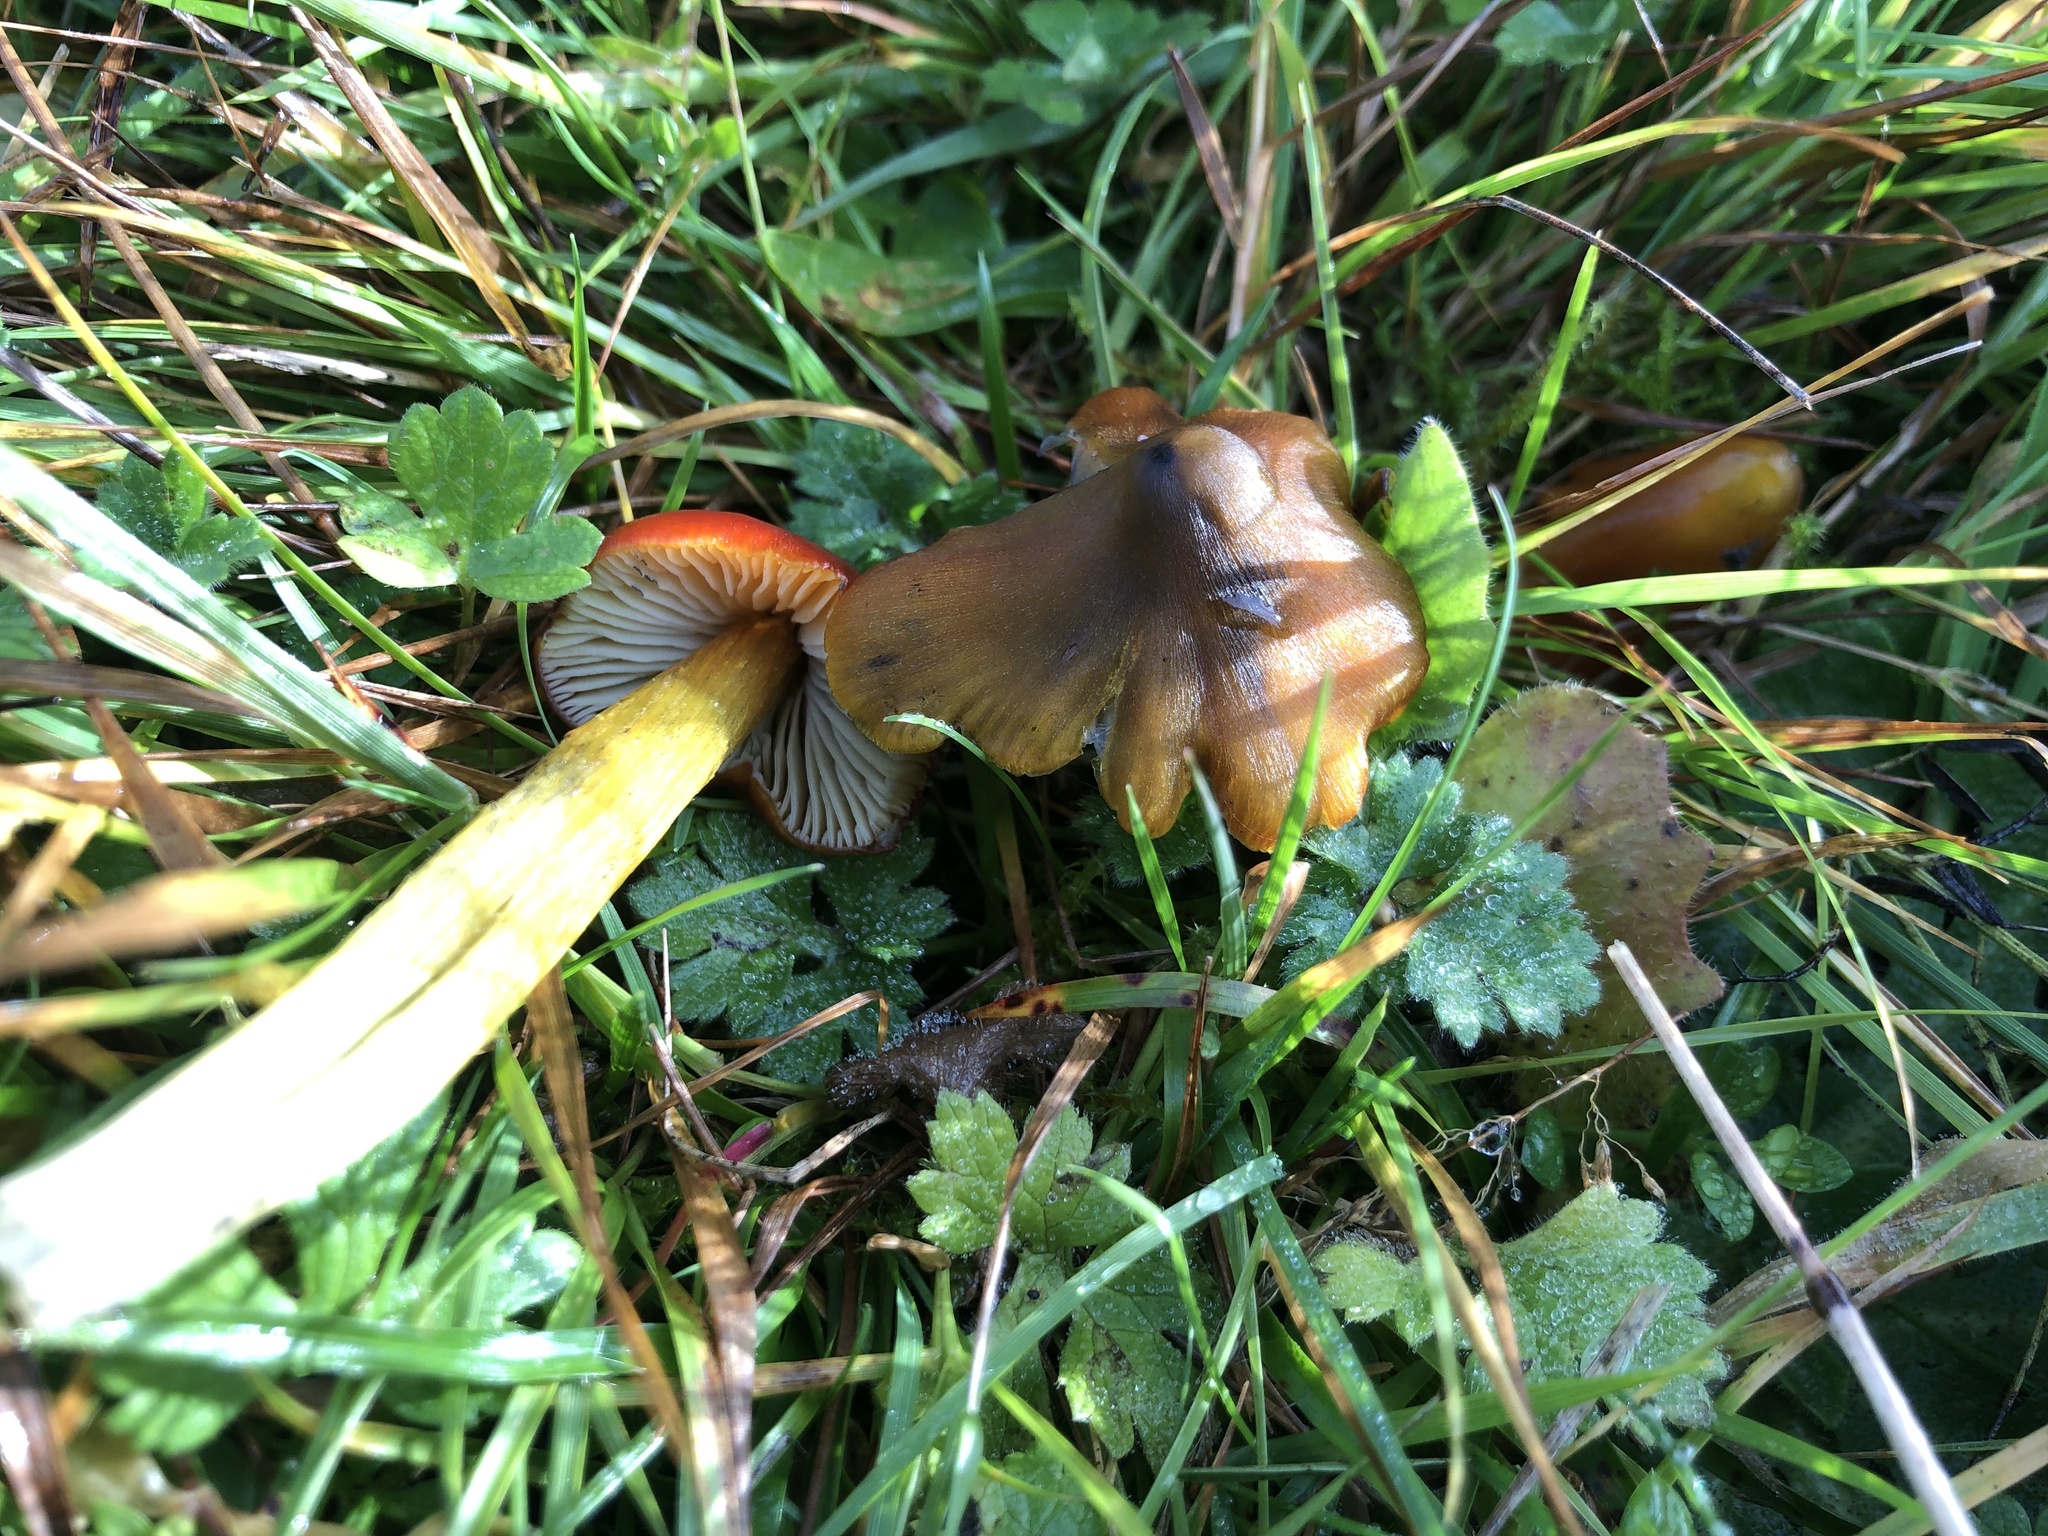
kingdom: Fungi
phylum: Basidiomycota
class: Agaricomycetes
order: Agaricales
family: Hygrophoraceae
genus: Hygrocybe
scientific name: Hygrocybe conica
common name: Blackening wax-cap
